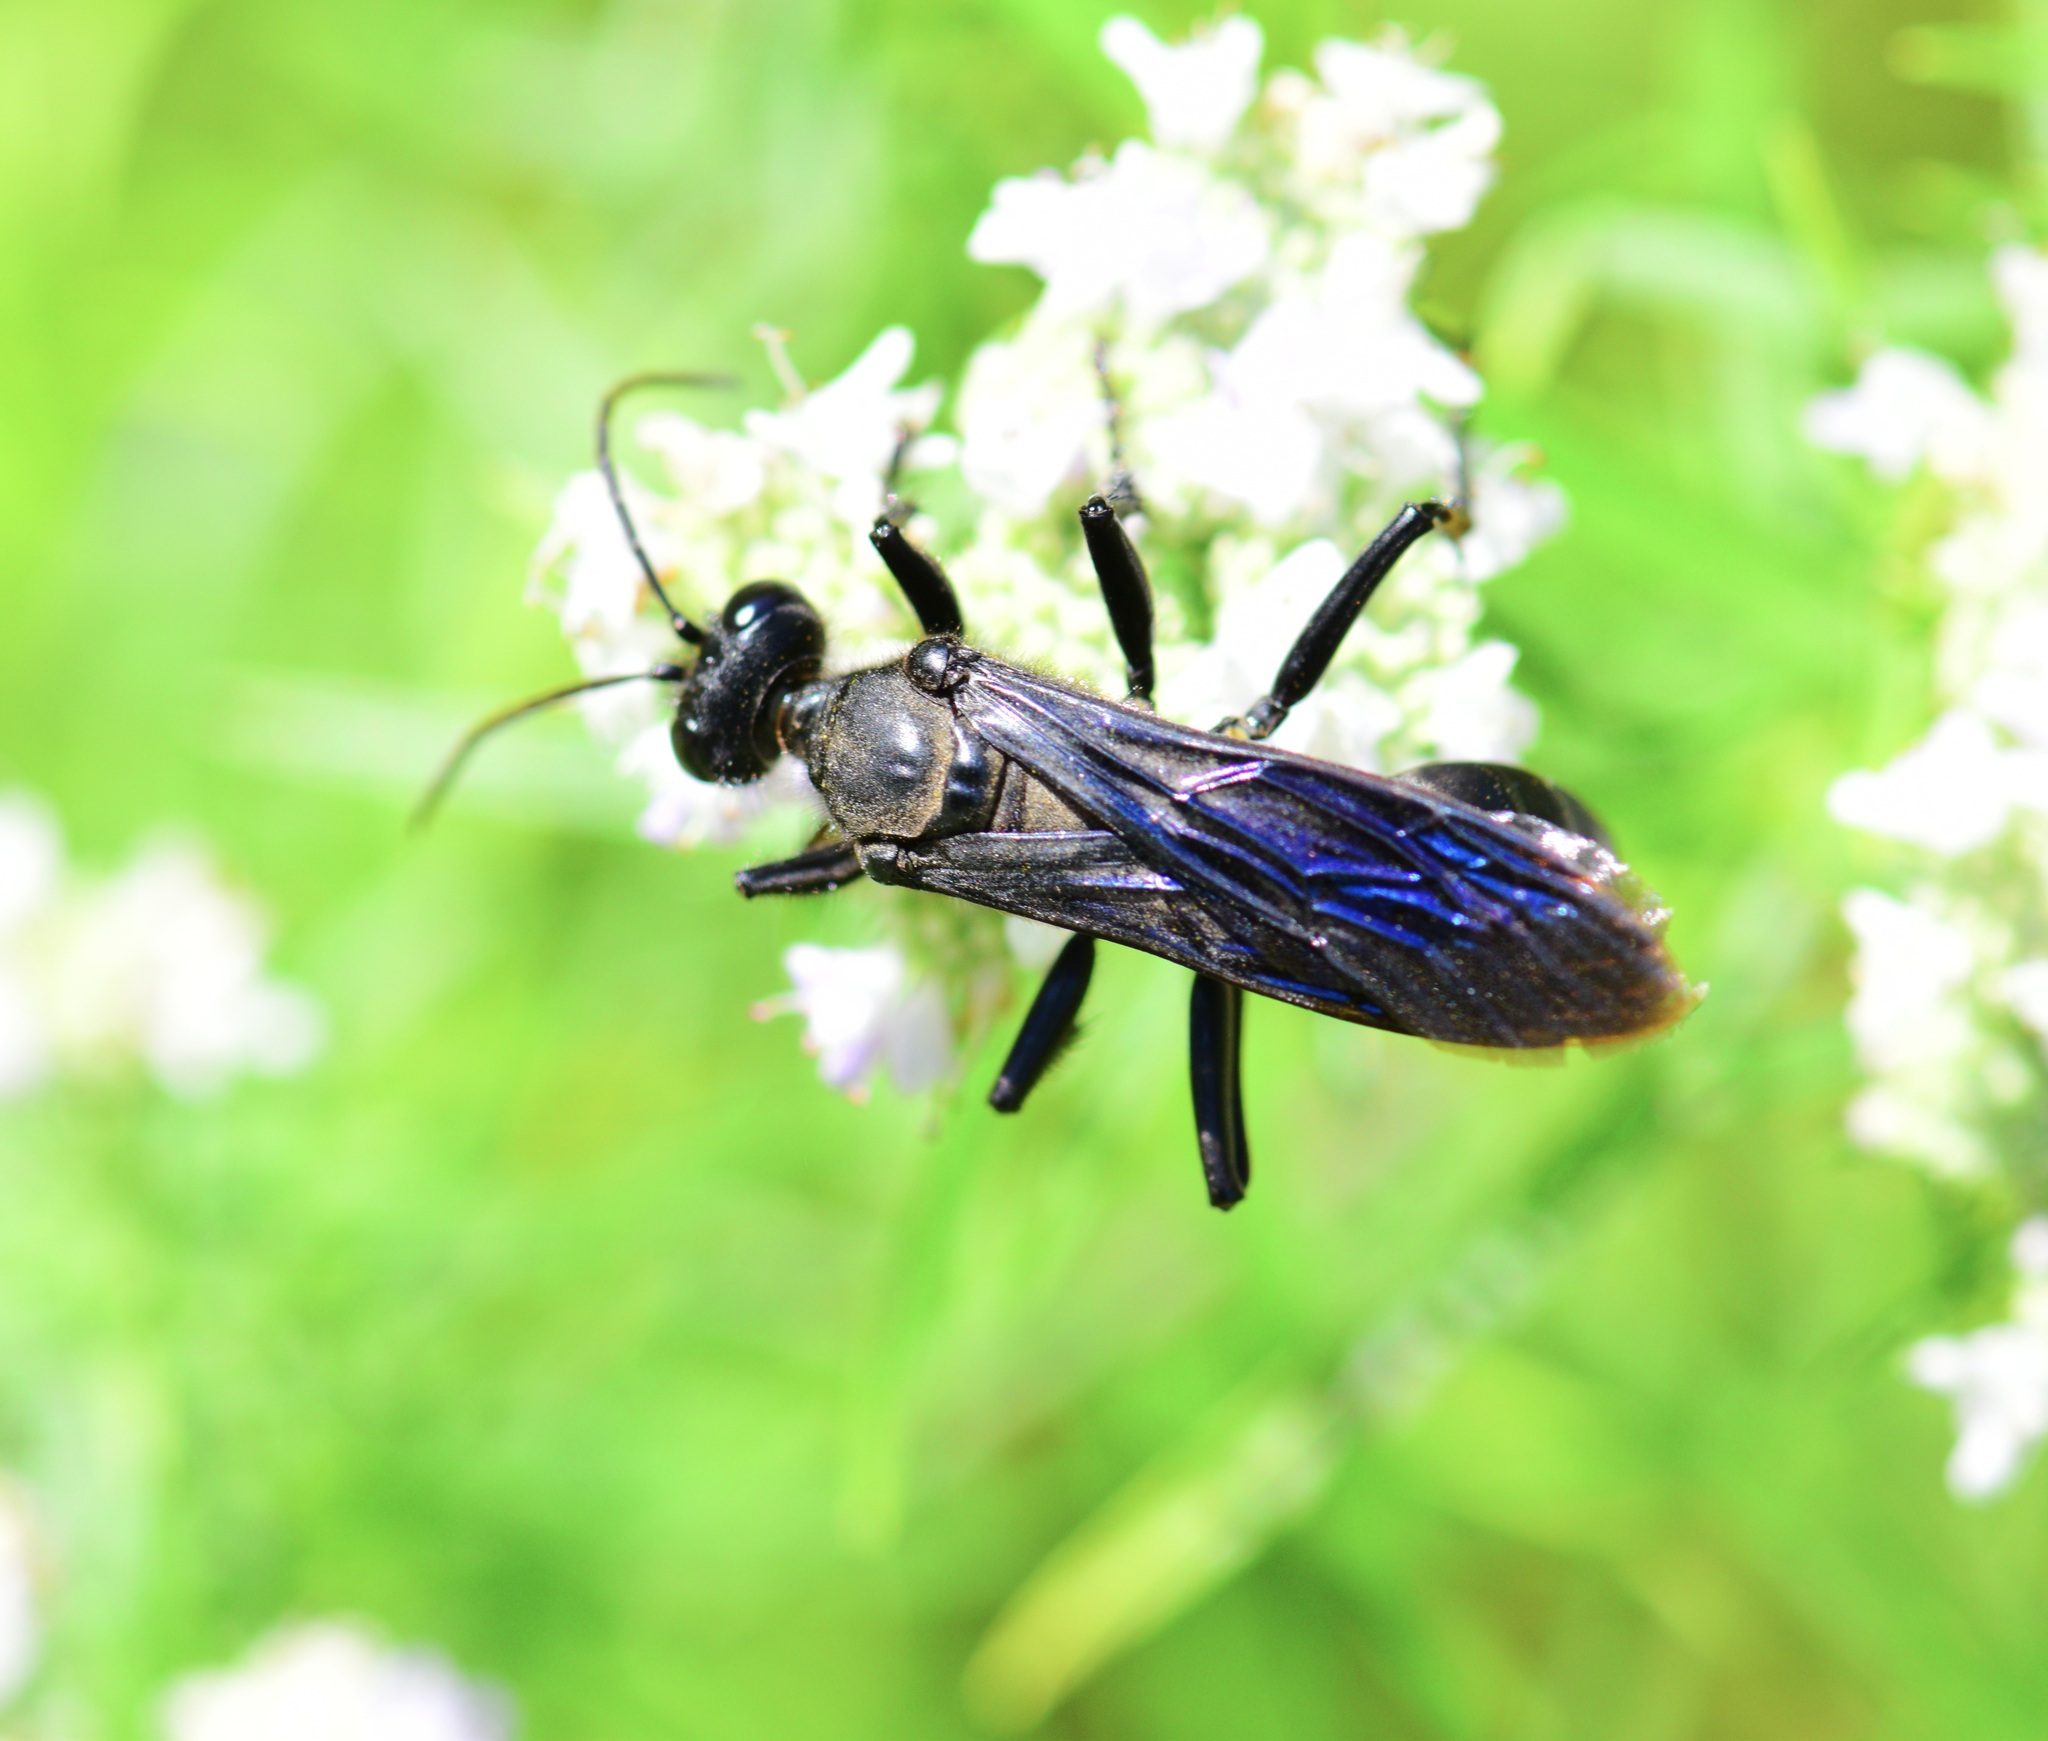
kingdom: Animalia
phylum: Arthropoda
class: Insecta
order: Hymenoptera
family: Sphecidae
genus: Sphex
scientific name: Sphex pensylvanicus
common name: Great black digger wasp
